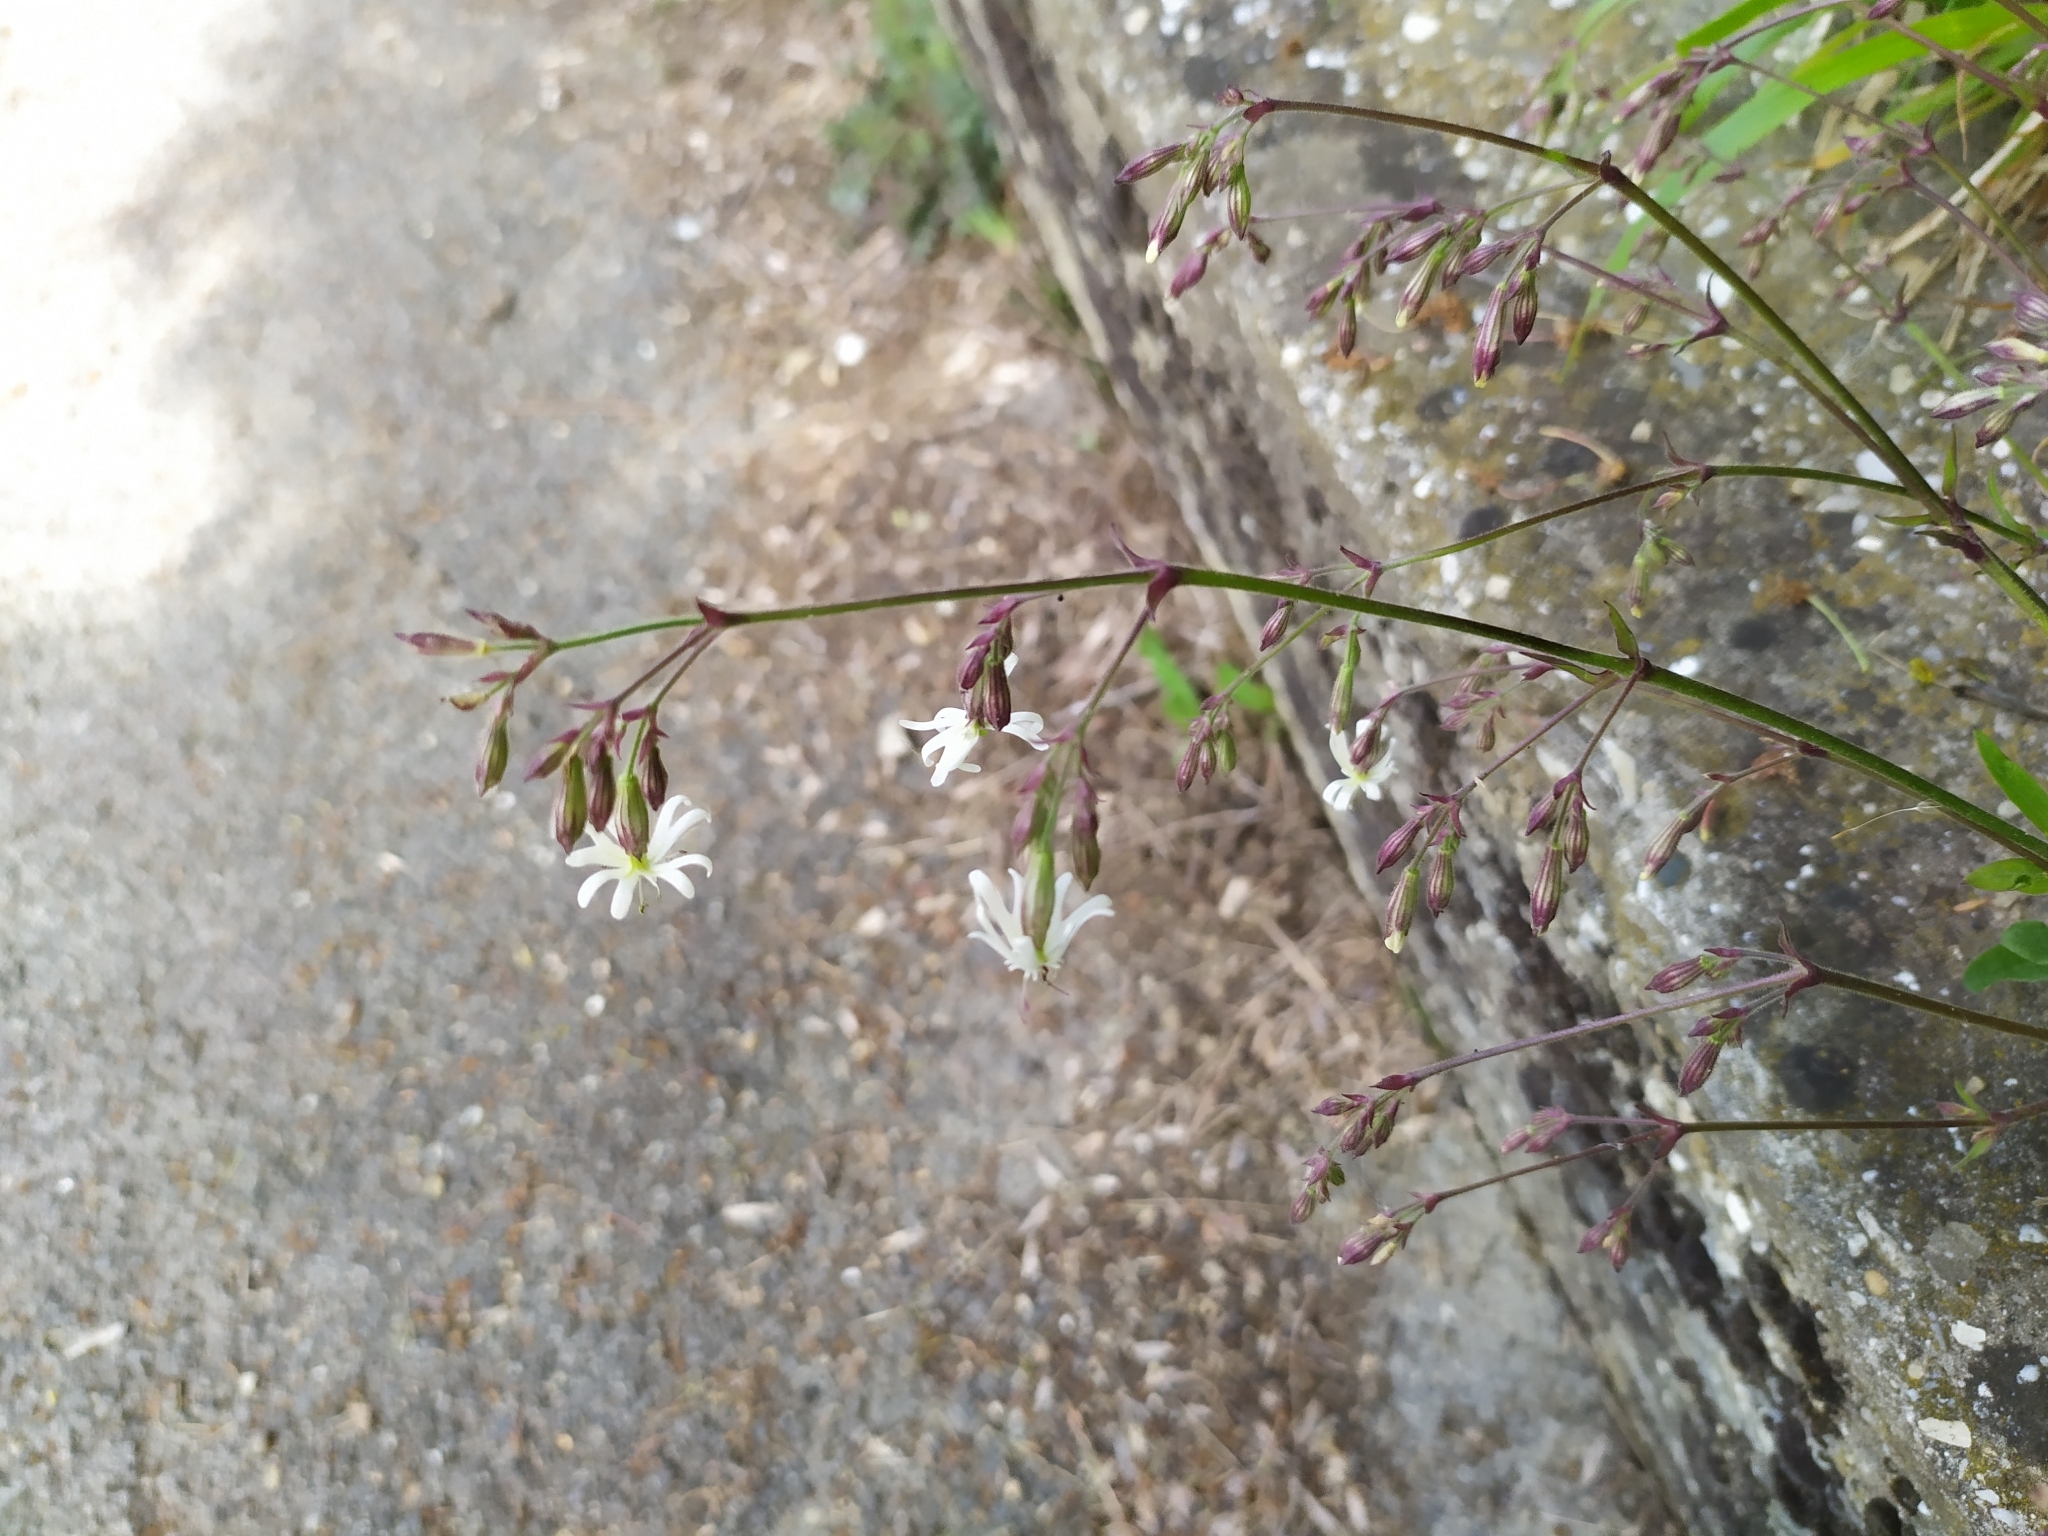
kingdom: Plantae
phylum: Tracheophyta
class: Magnoliopsida
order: Caryophyllales
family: Caryophyllaceae
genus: Silene
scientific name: Silene nutans
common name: Nottingham catchfly
